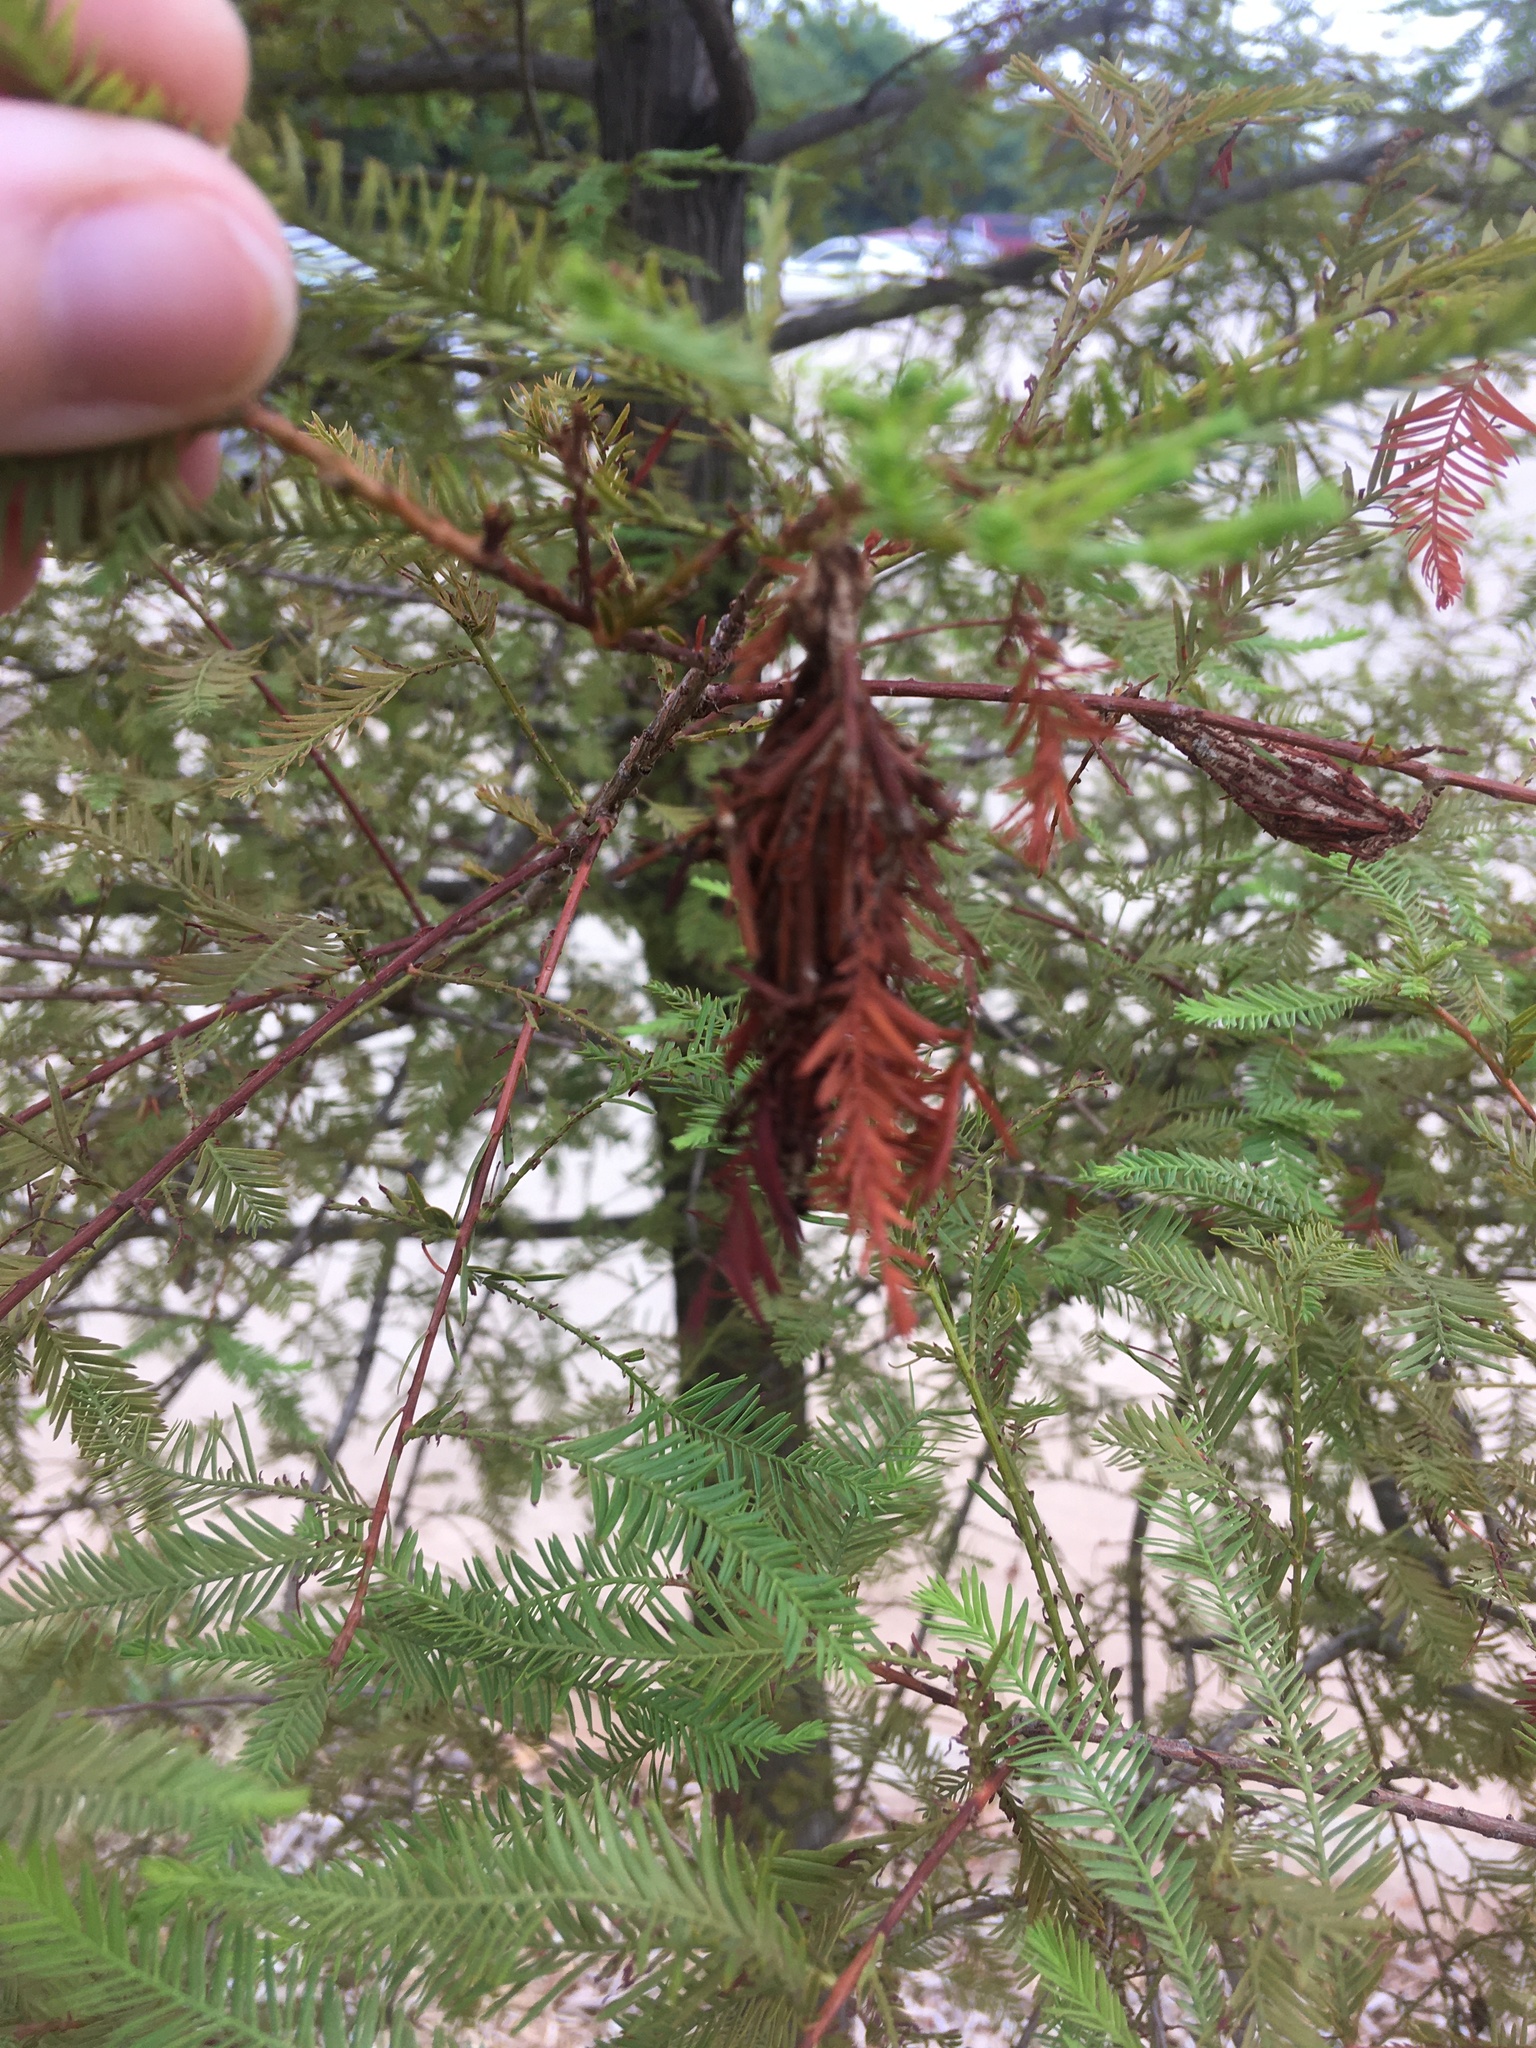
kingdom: Animalia
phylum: Arthropoda
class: Insecta
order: Lepidoptera
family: Psychidae
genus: Thyridopteryx
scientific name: Thyridopteryx ephemeraeformis
